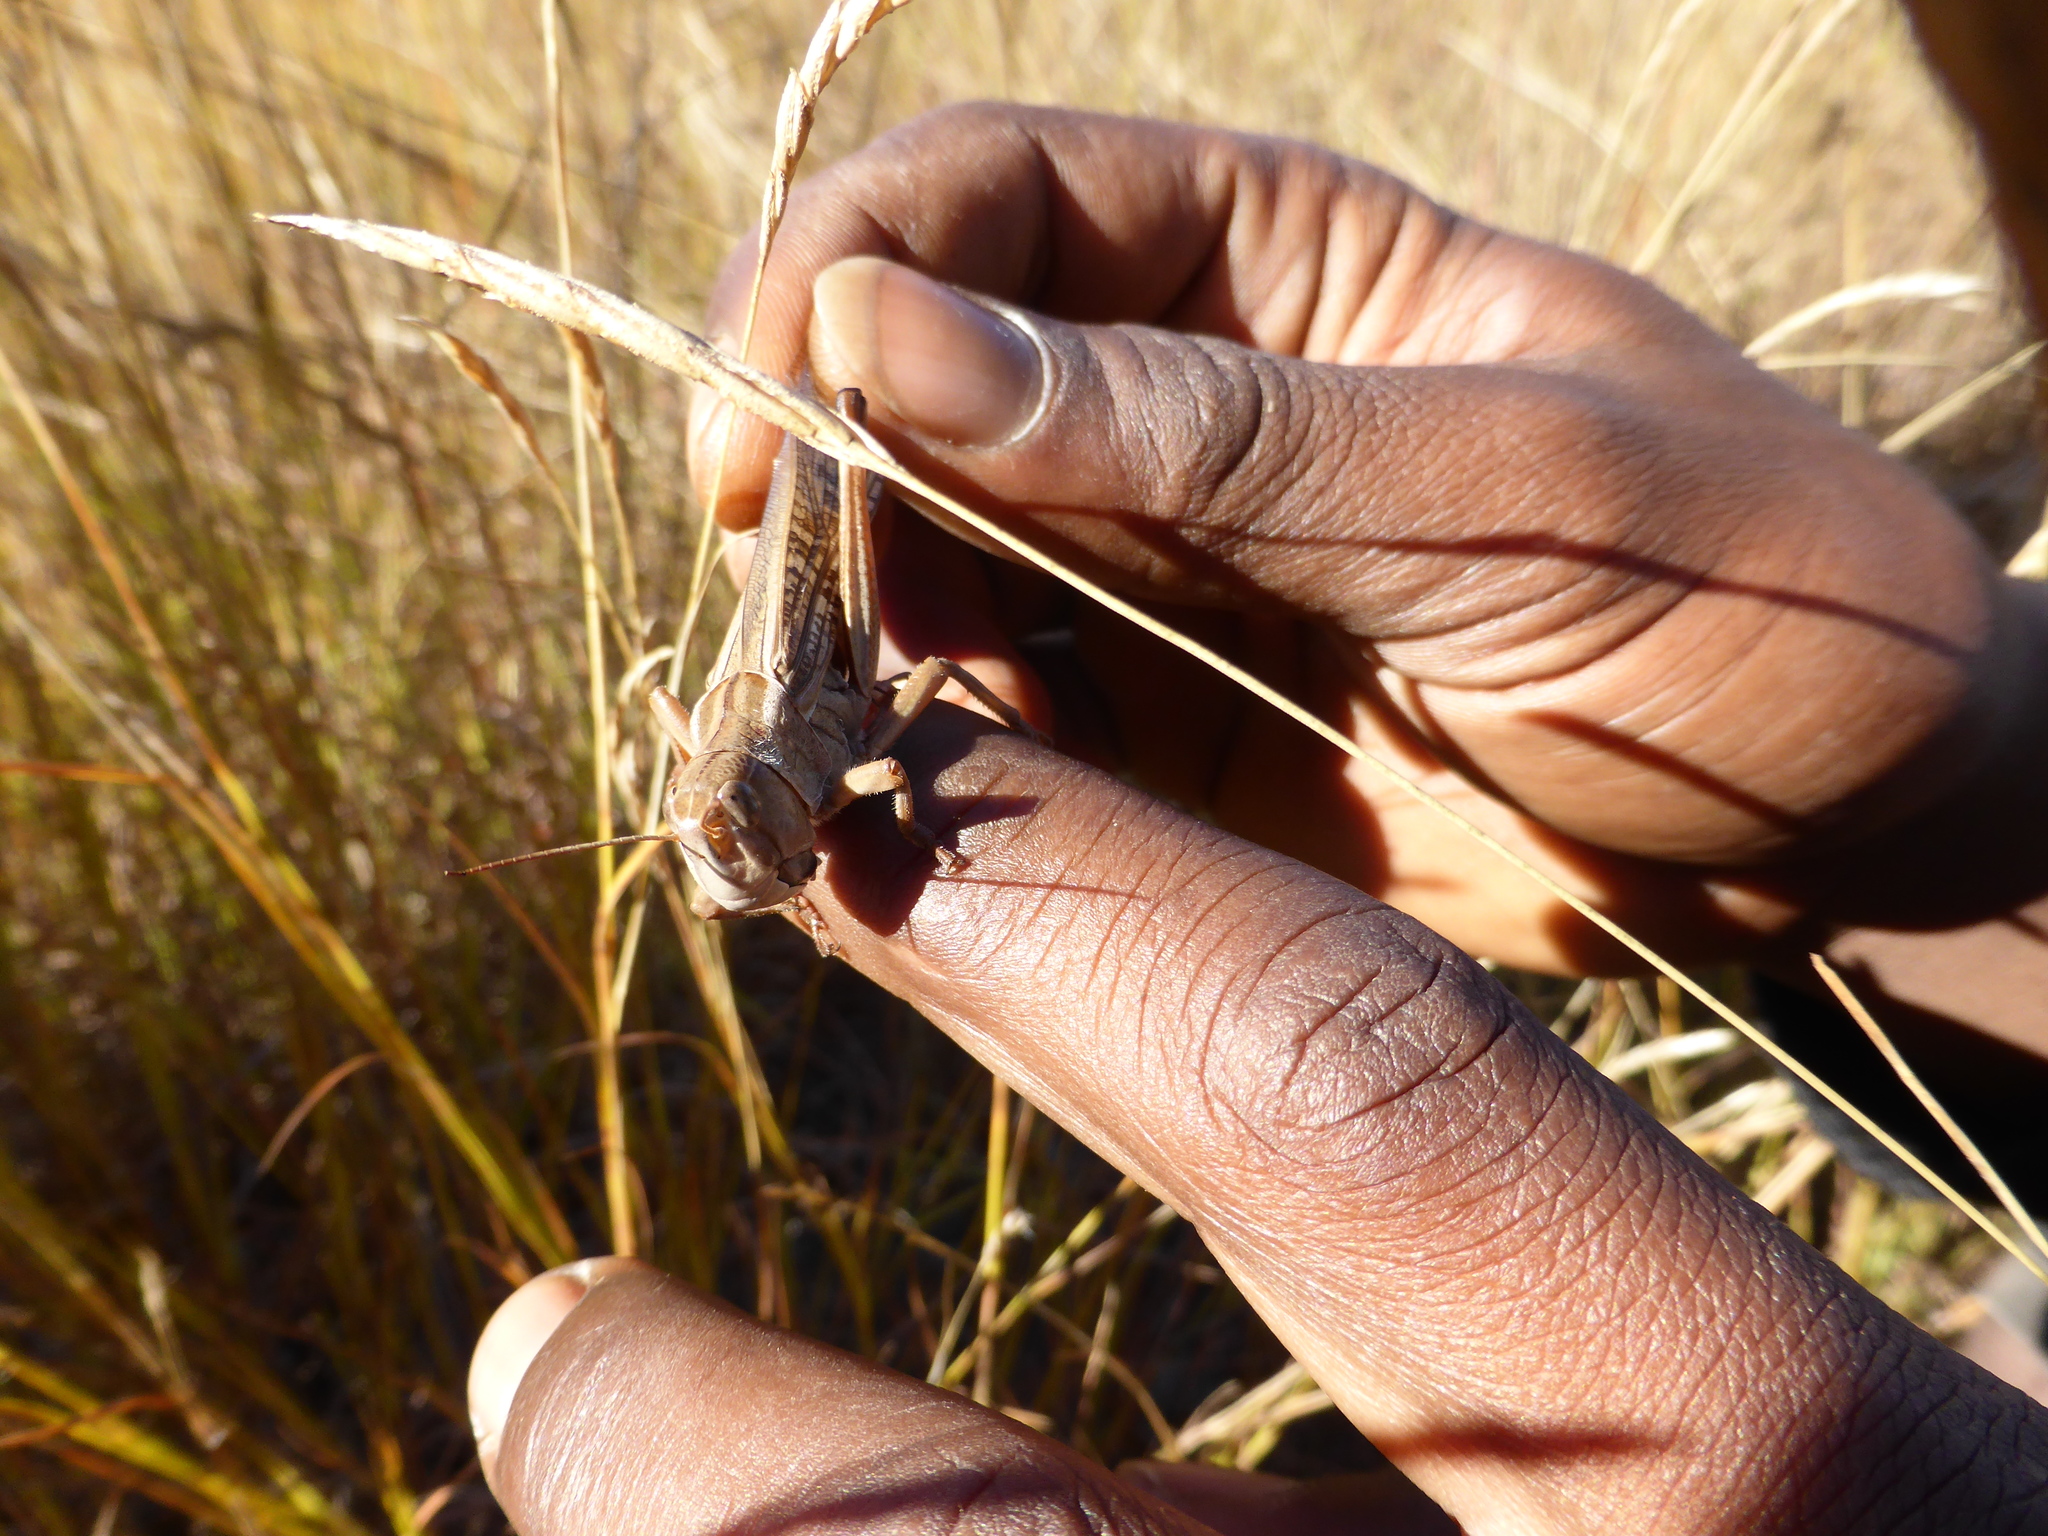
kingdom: Animalia
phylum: Arthropoda
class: Insecta
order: Orthoptera
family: Acrididae
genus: Locusta
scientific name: Locusta migratoria
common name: Migratory locust
